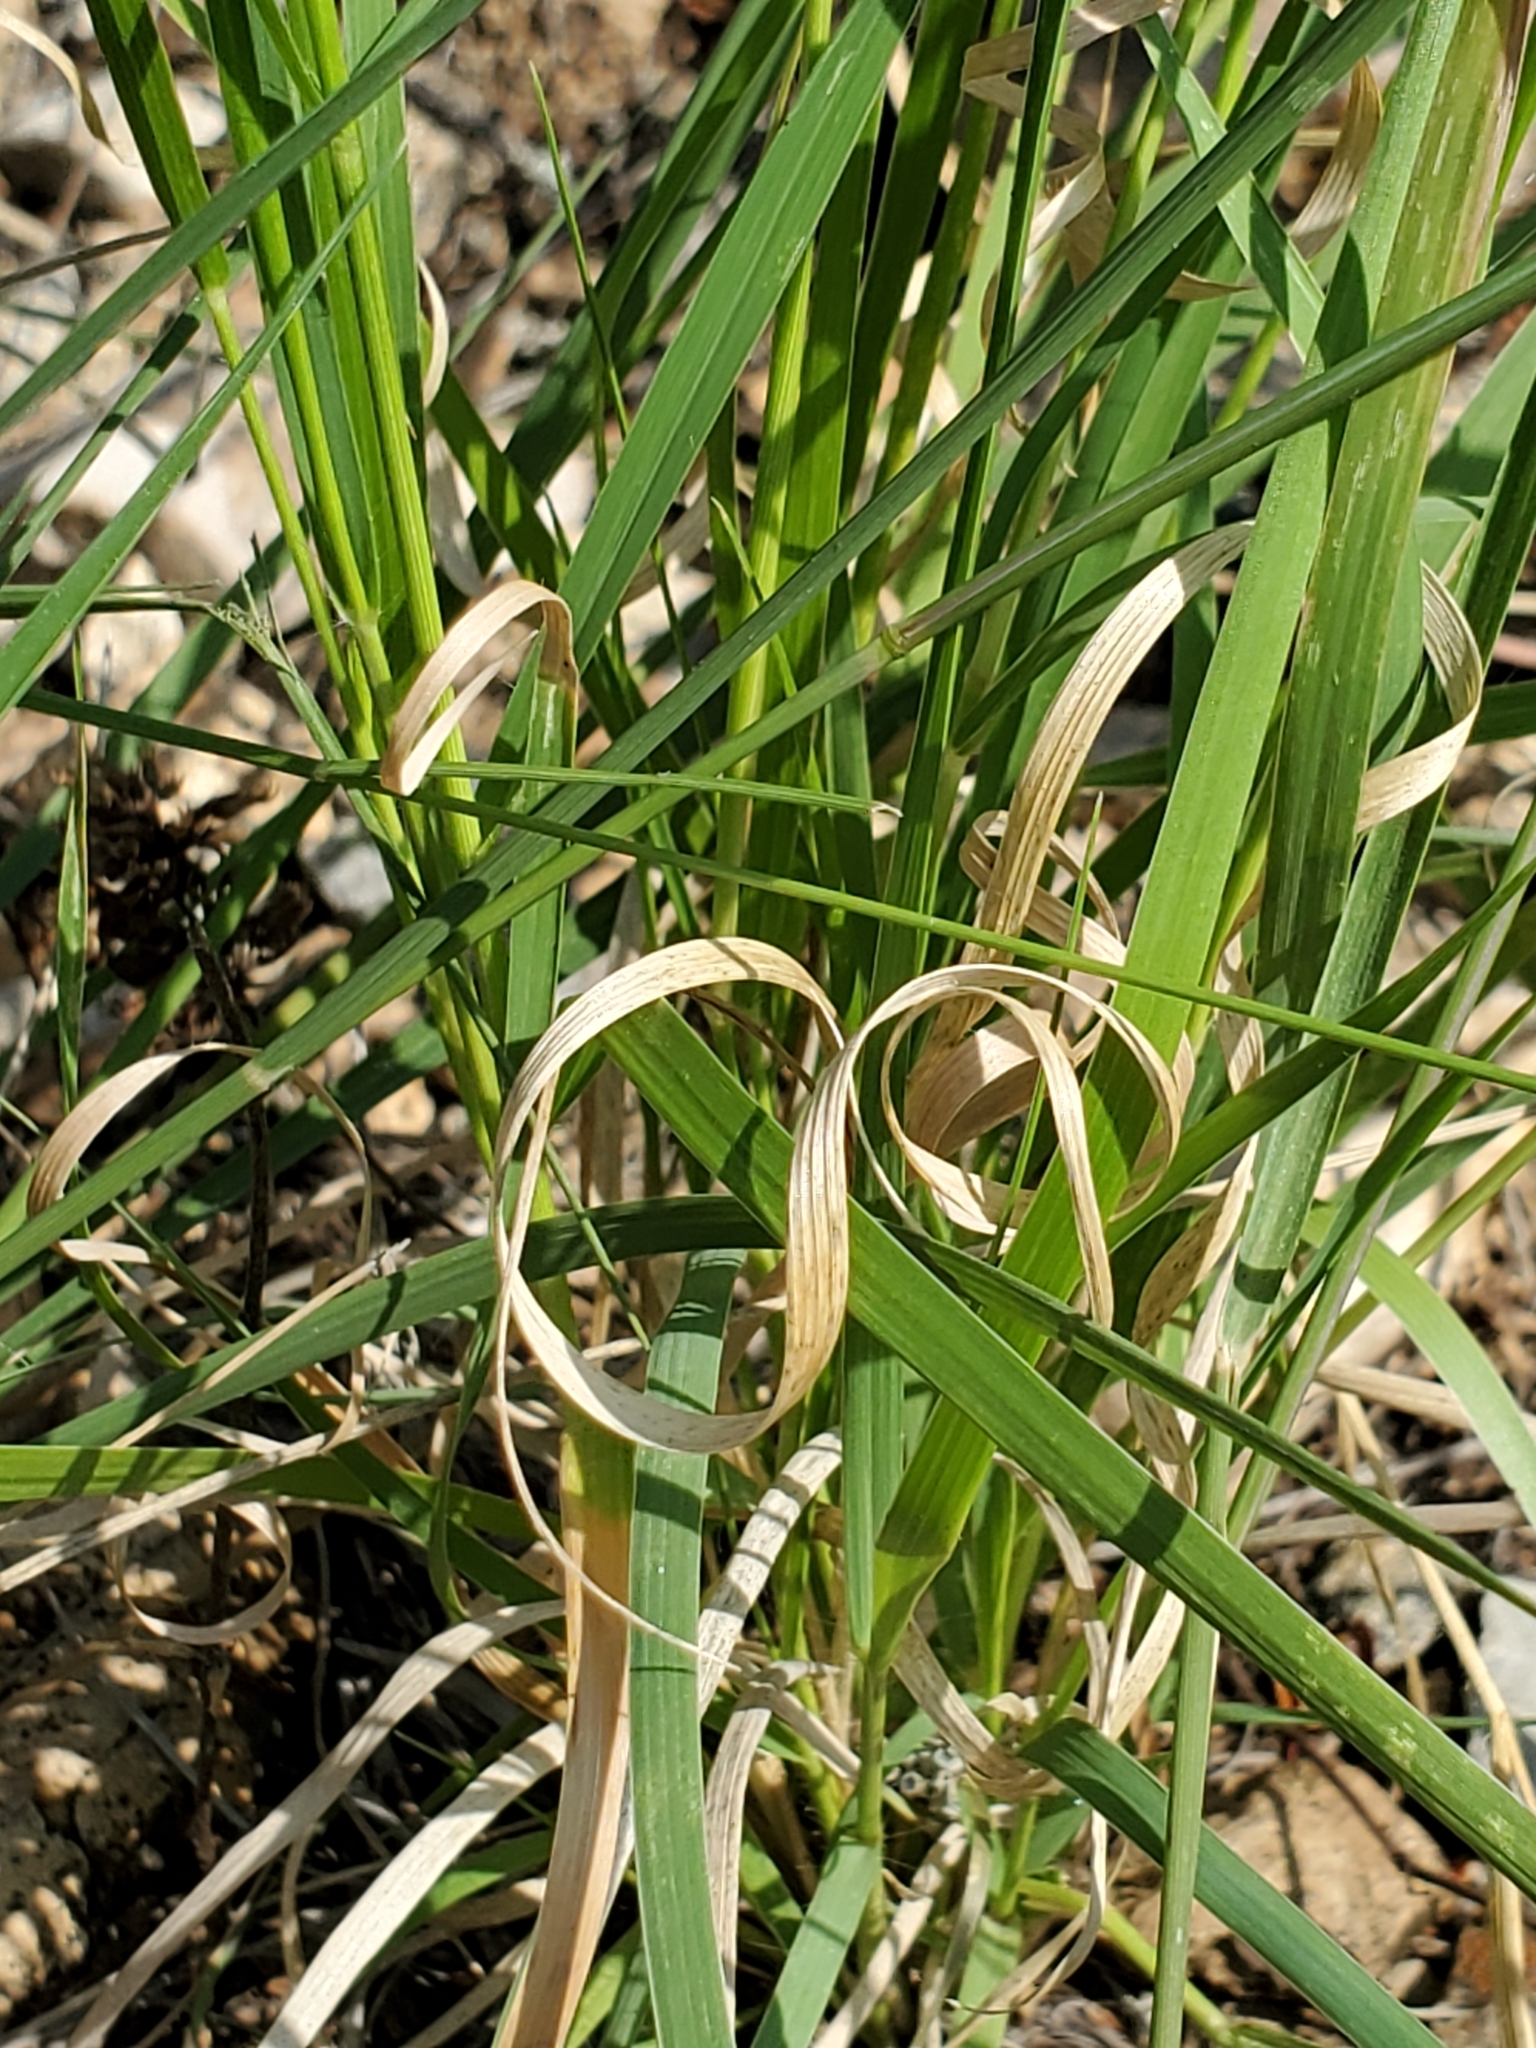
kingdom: Plantae
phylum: Tracheophyta
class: Liliopsida
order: Poales
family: Poaceae
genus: Panicum
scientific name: Panicum hallii
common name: Hall's witchgrass
